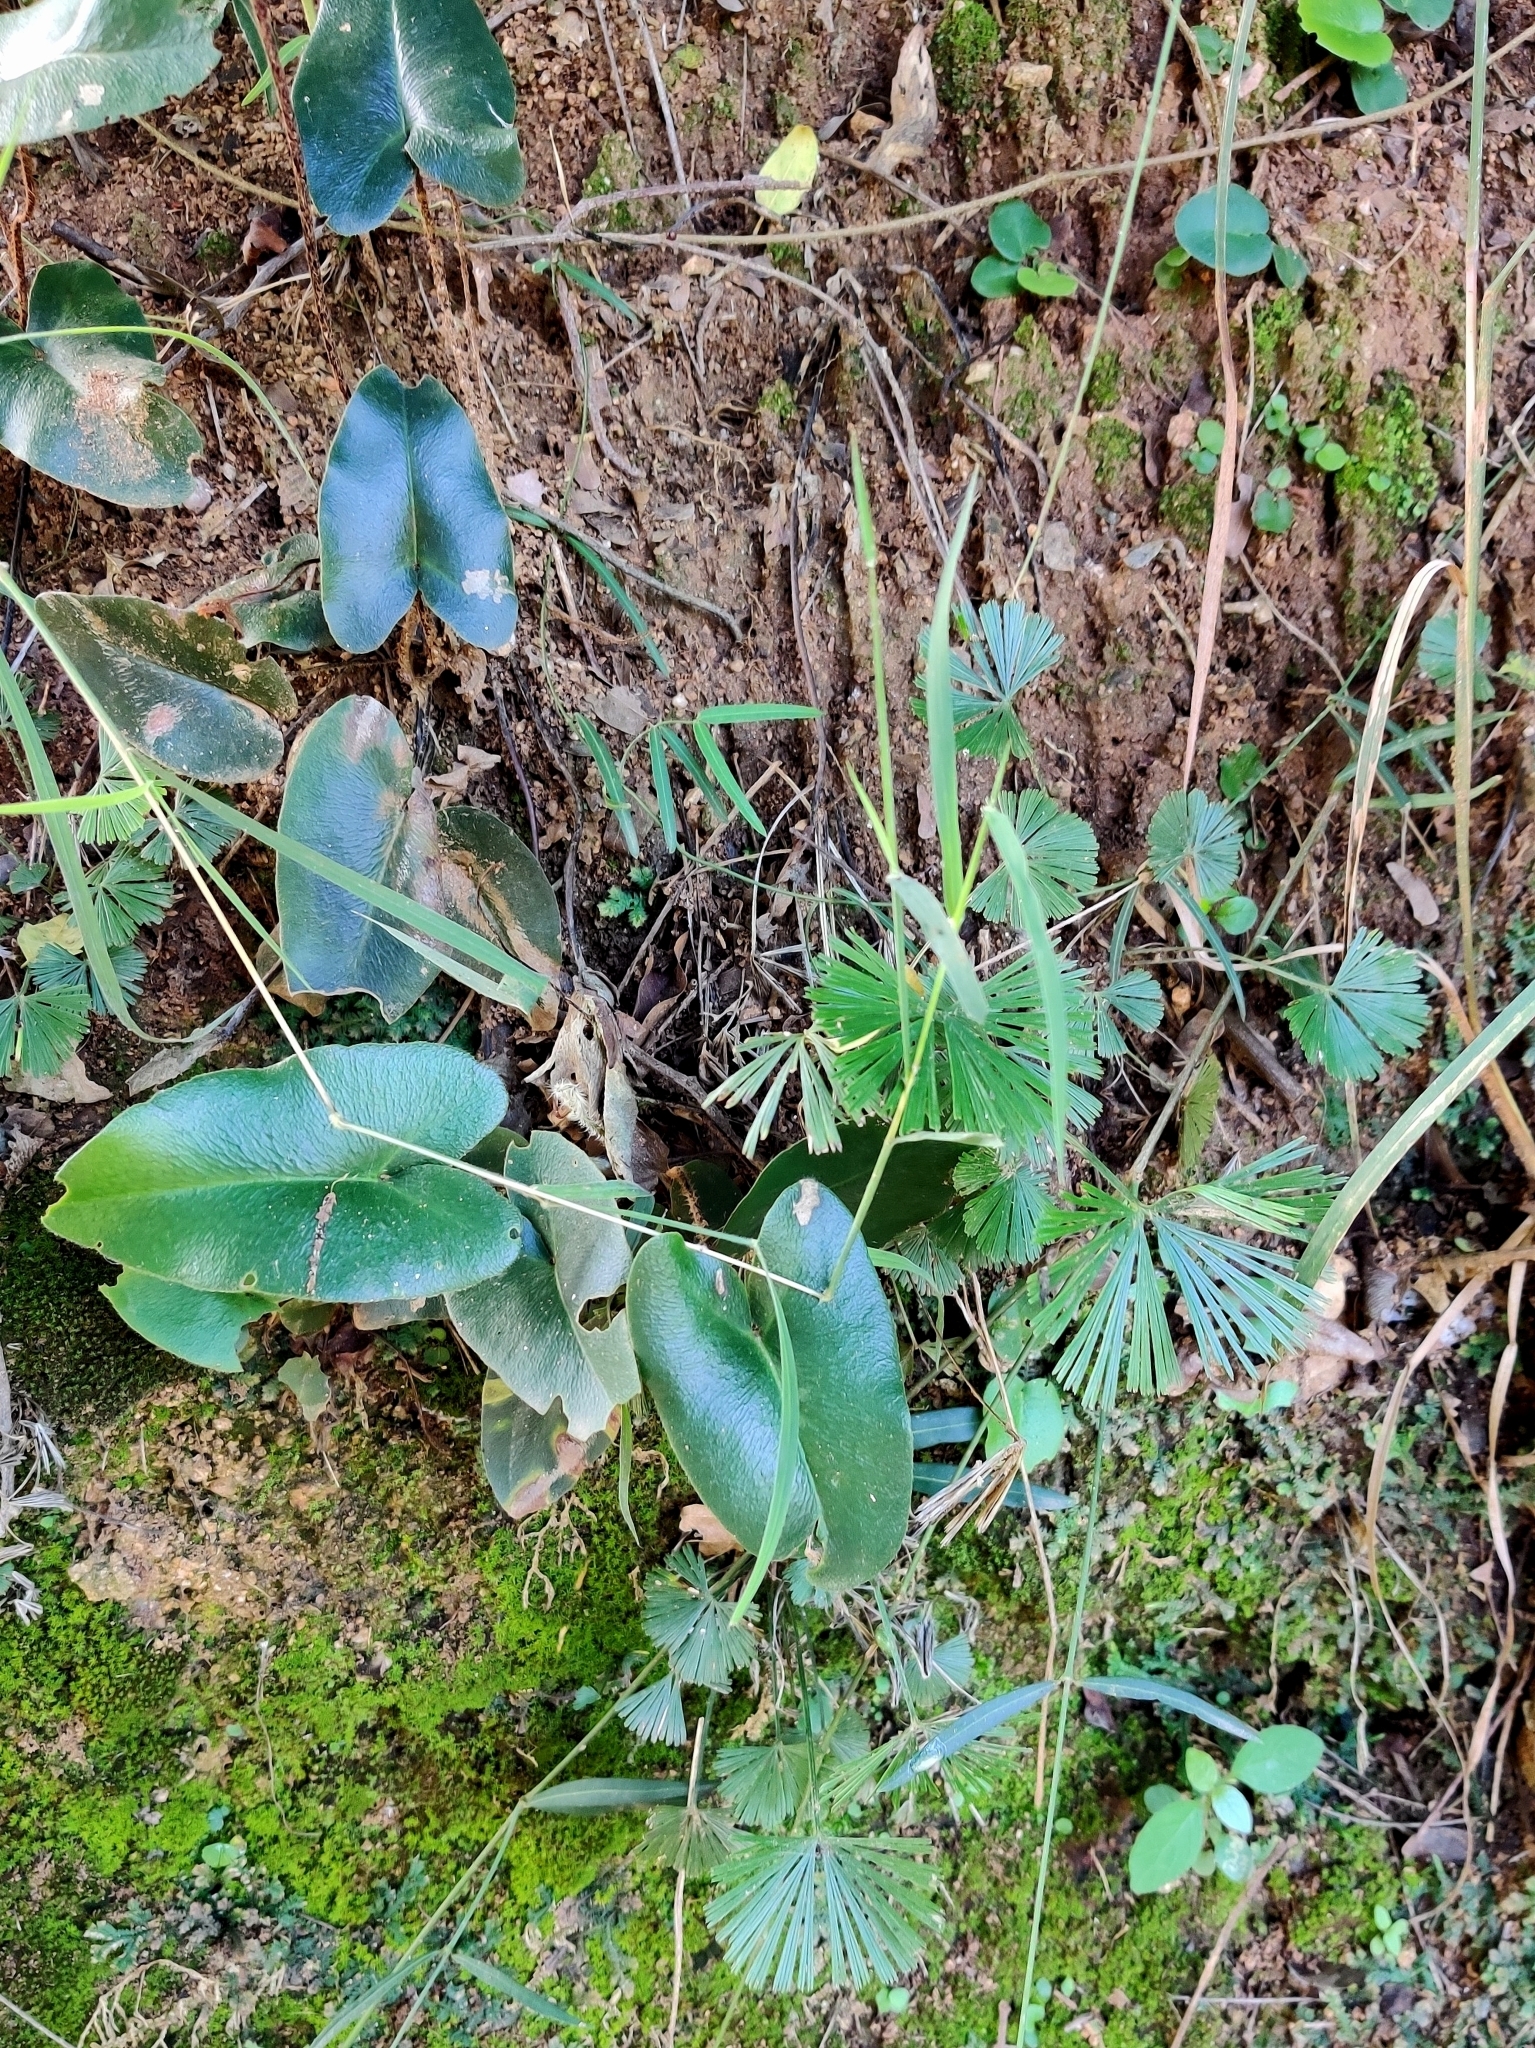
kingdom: Plantae
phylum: Tracheophyta
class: Polypodiopsida
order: Polypodiales
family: Pteridaceae
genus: Mickelopteris
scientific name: Mickelopteris cordata
